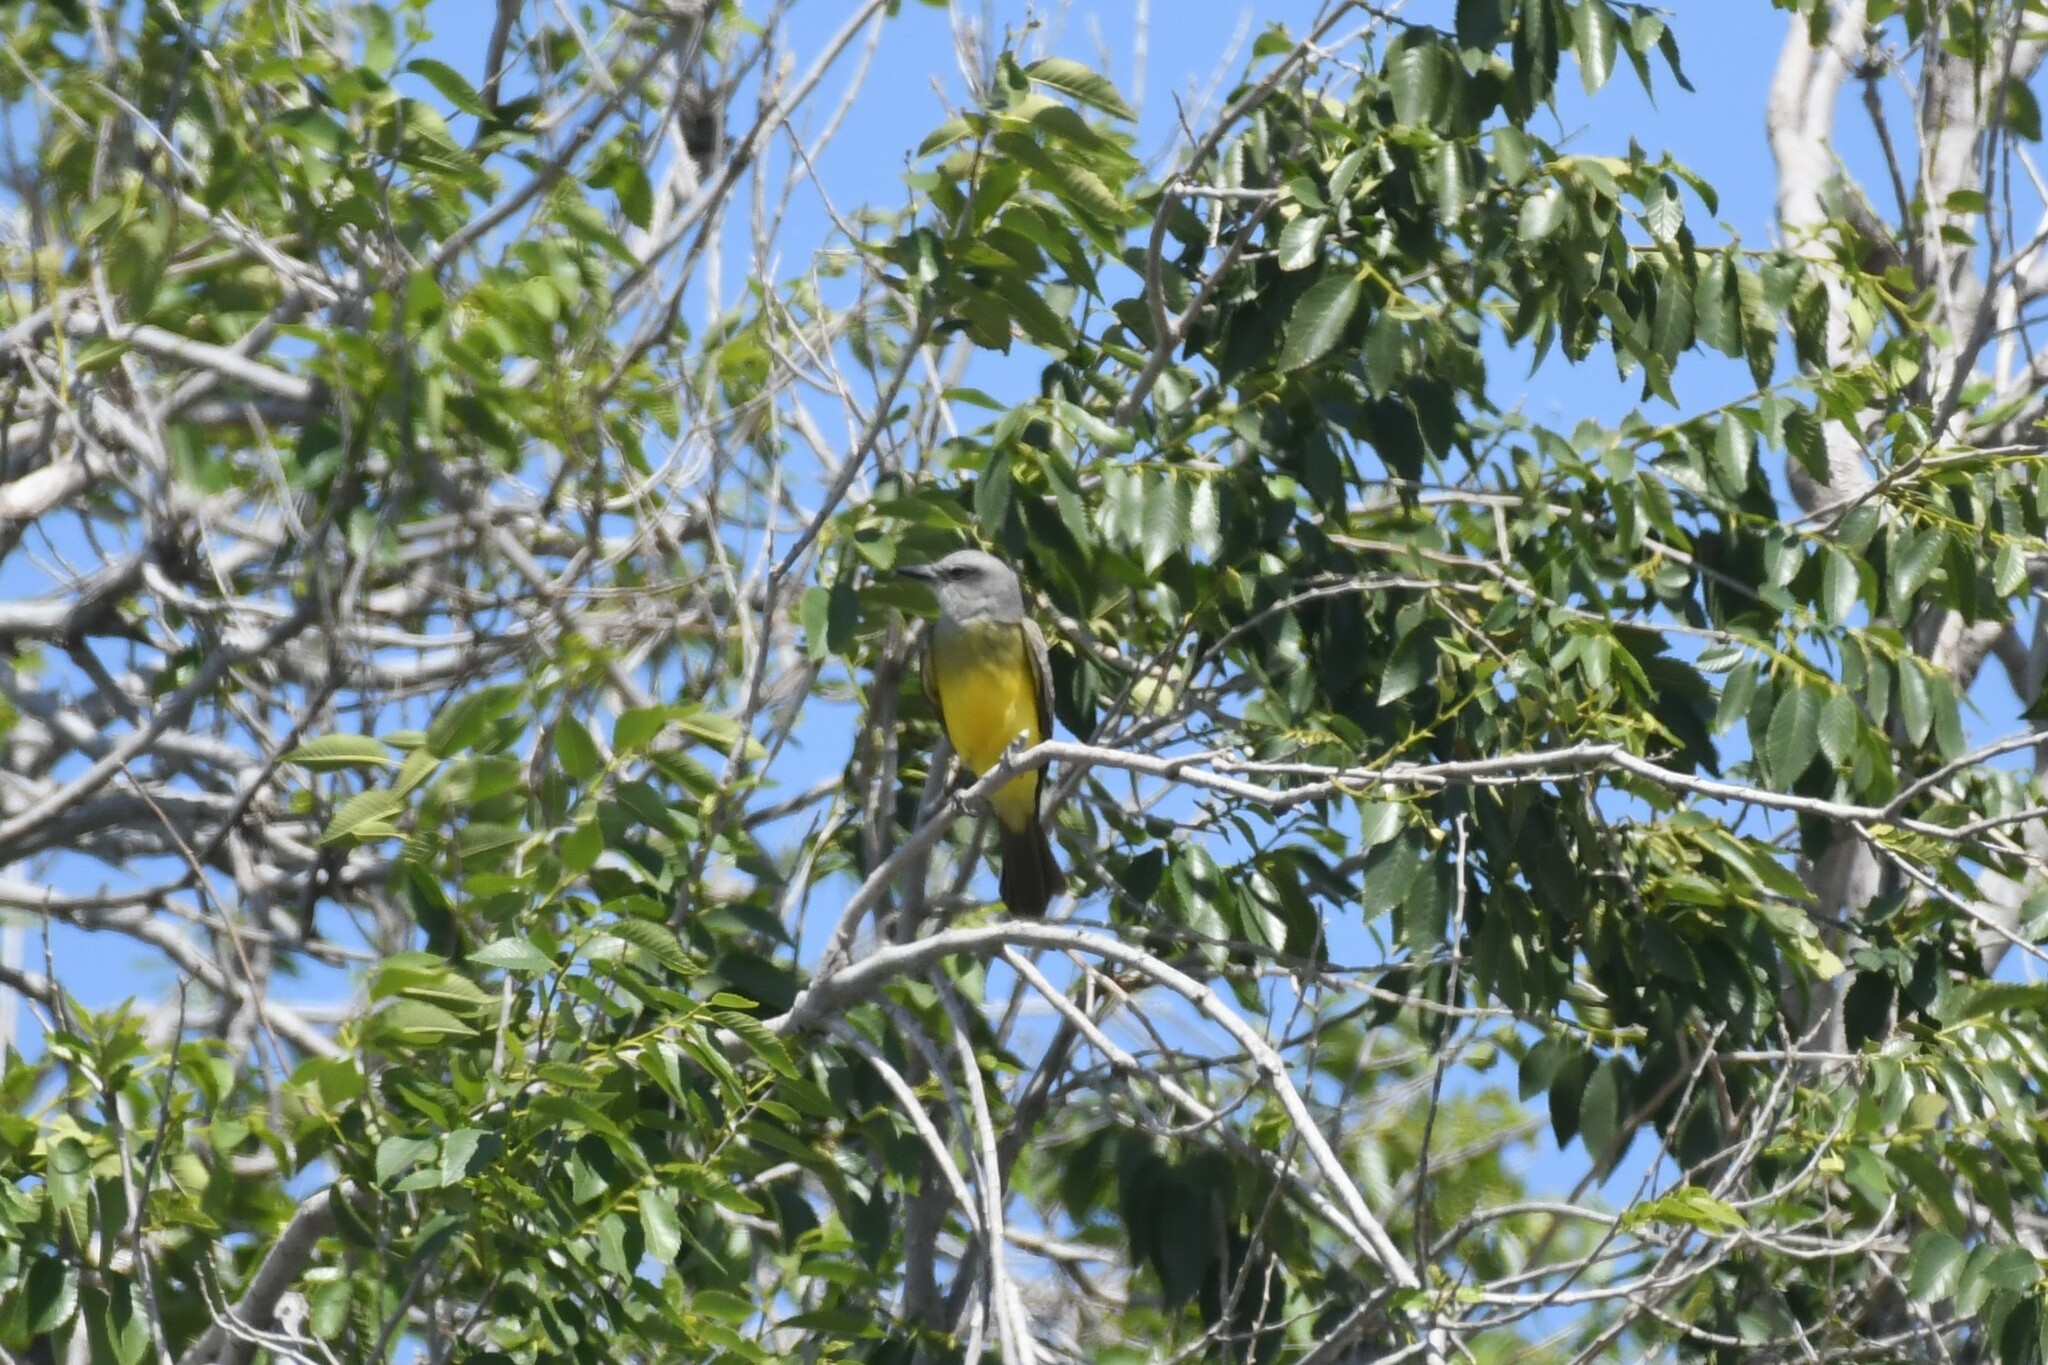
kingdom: Animalia
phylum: Chordata
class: Aves
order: Passeriformes
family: Tyrannidae
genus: Tyrannus
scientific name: Tyrannus melancholicus
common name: Tropical kingbird
